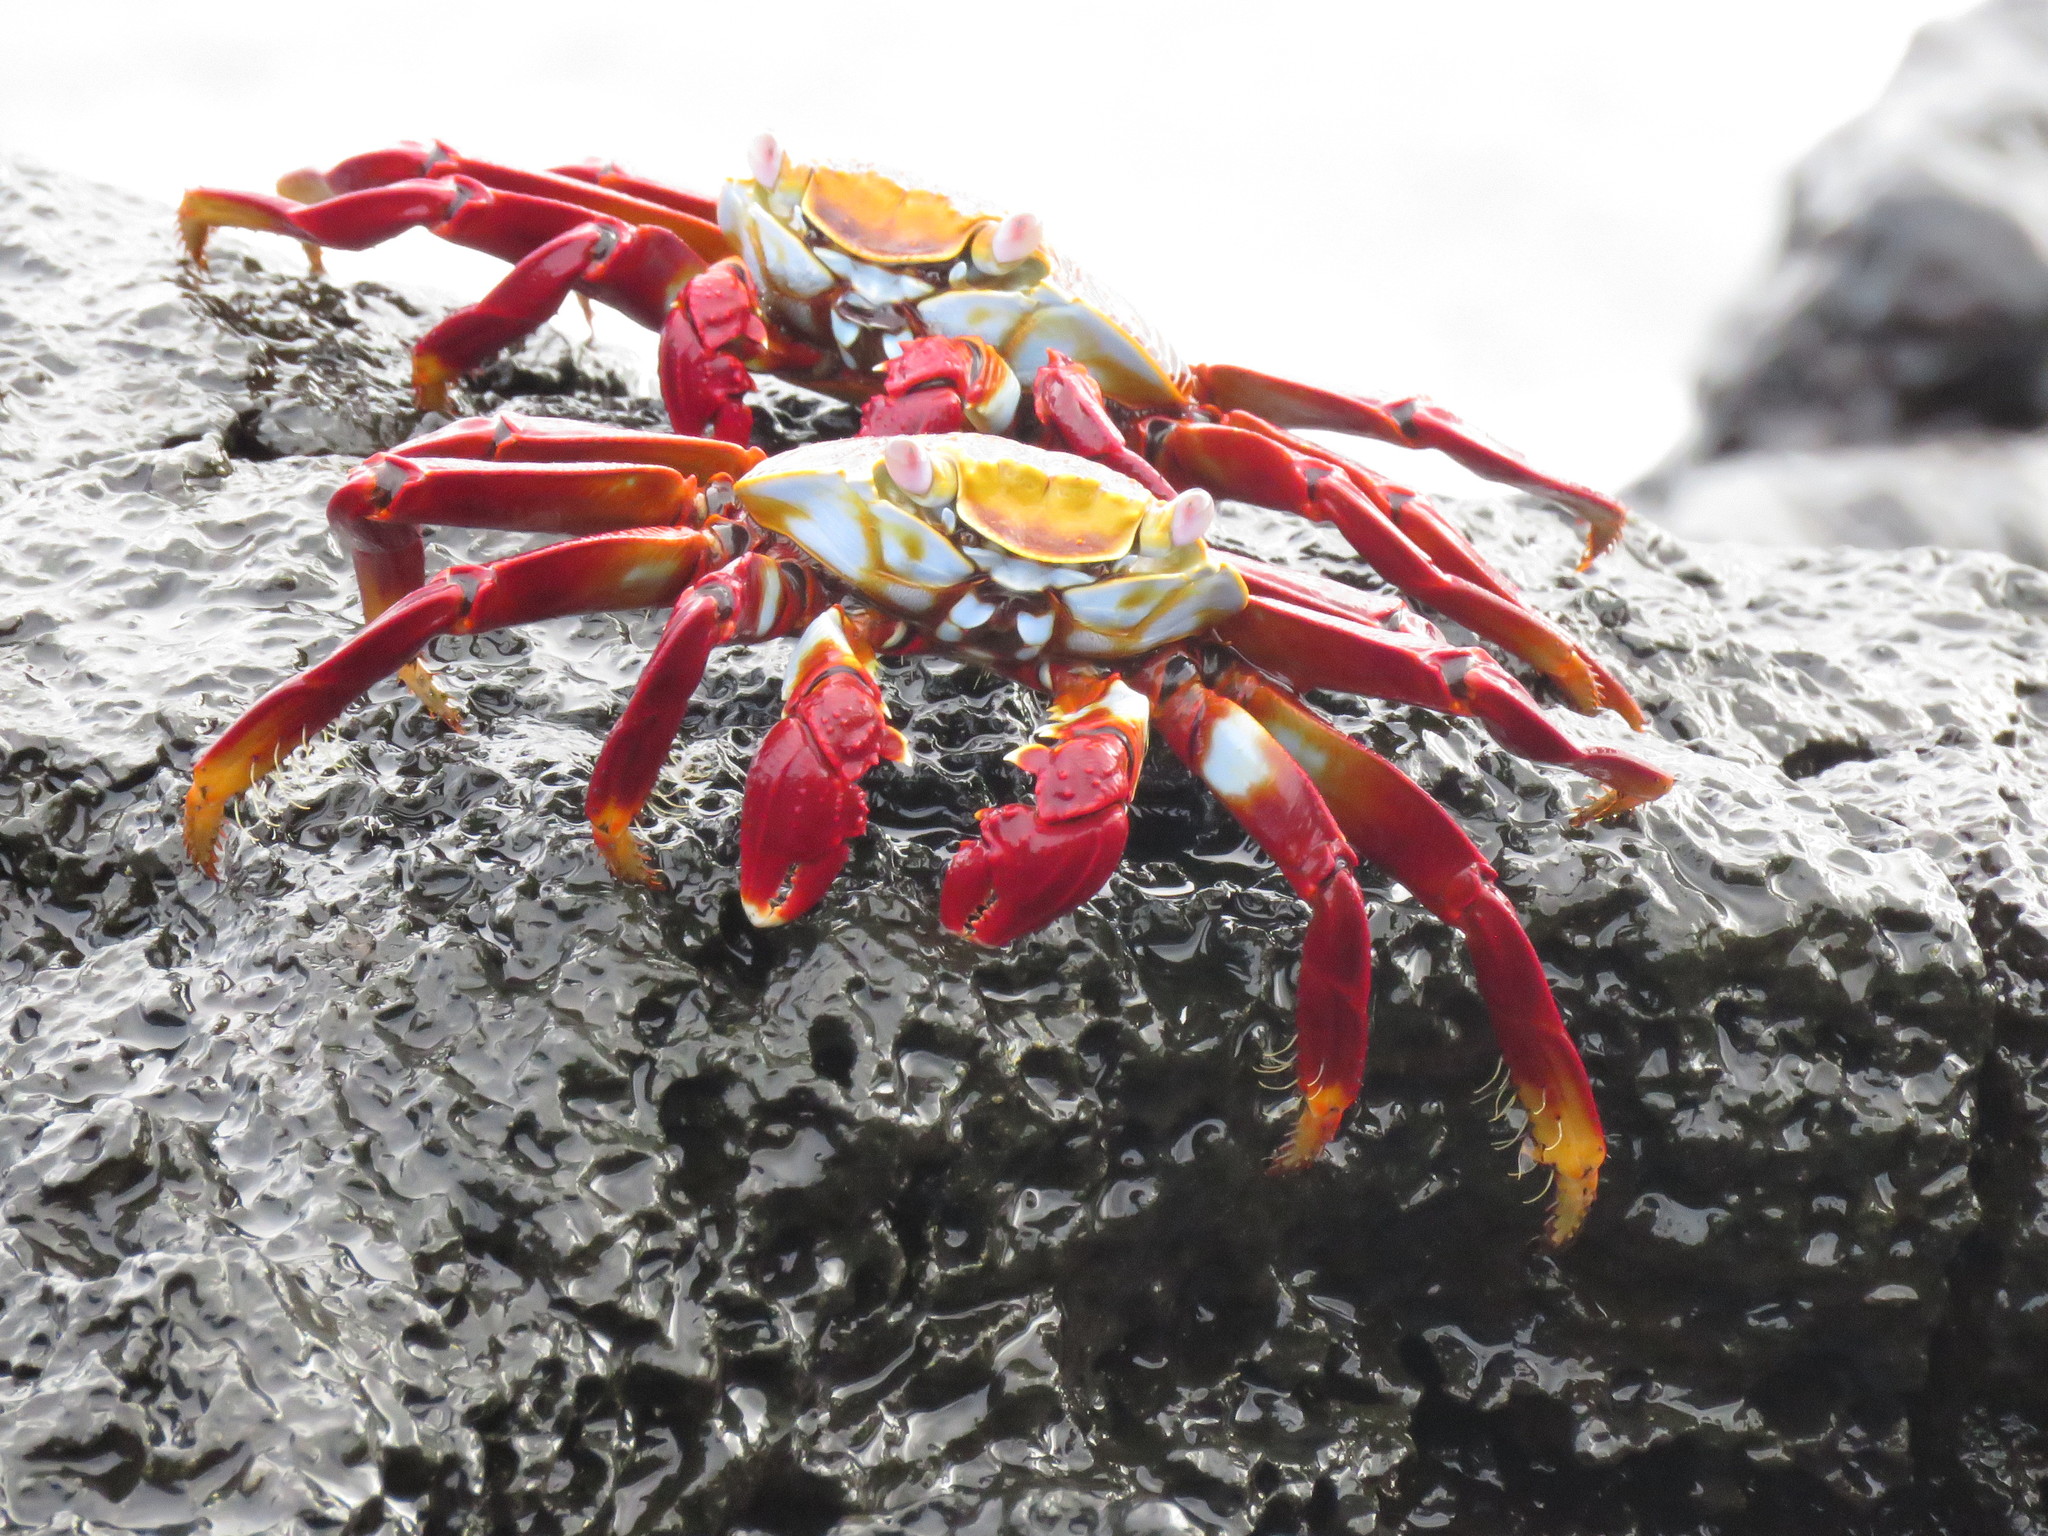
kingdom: Animalia
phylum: Arthropoda
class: Malacostraca
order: Decapoda
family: Grapsidae
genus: Grapsus
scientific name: Grapsus grapsus
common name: Sally lightfoot
